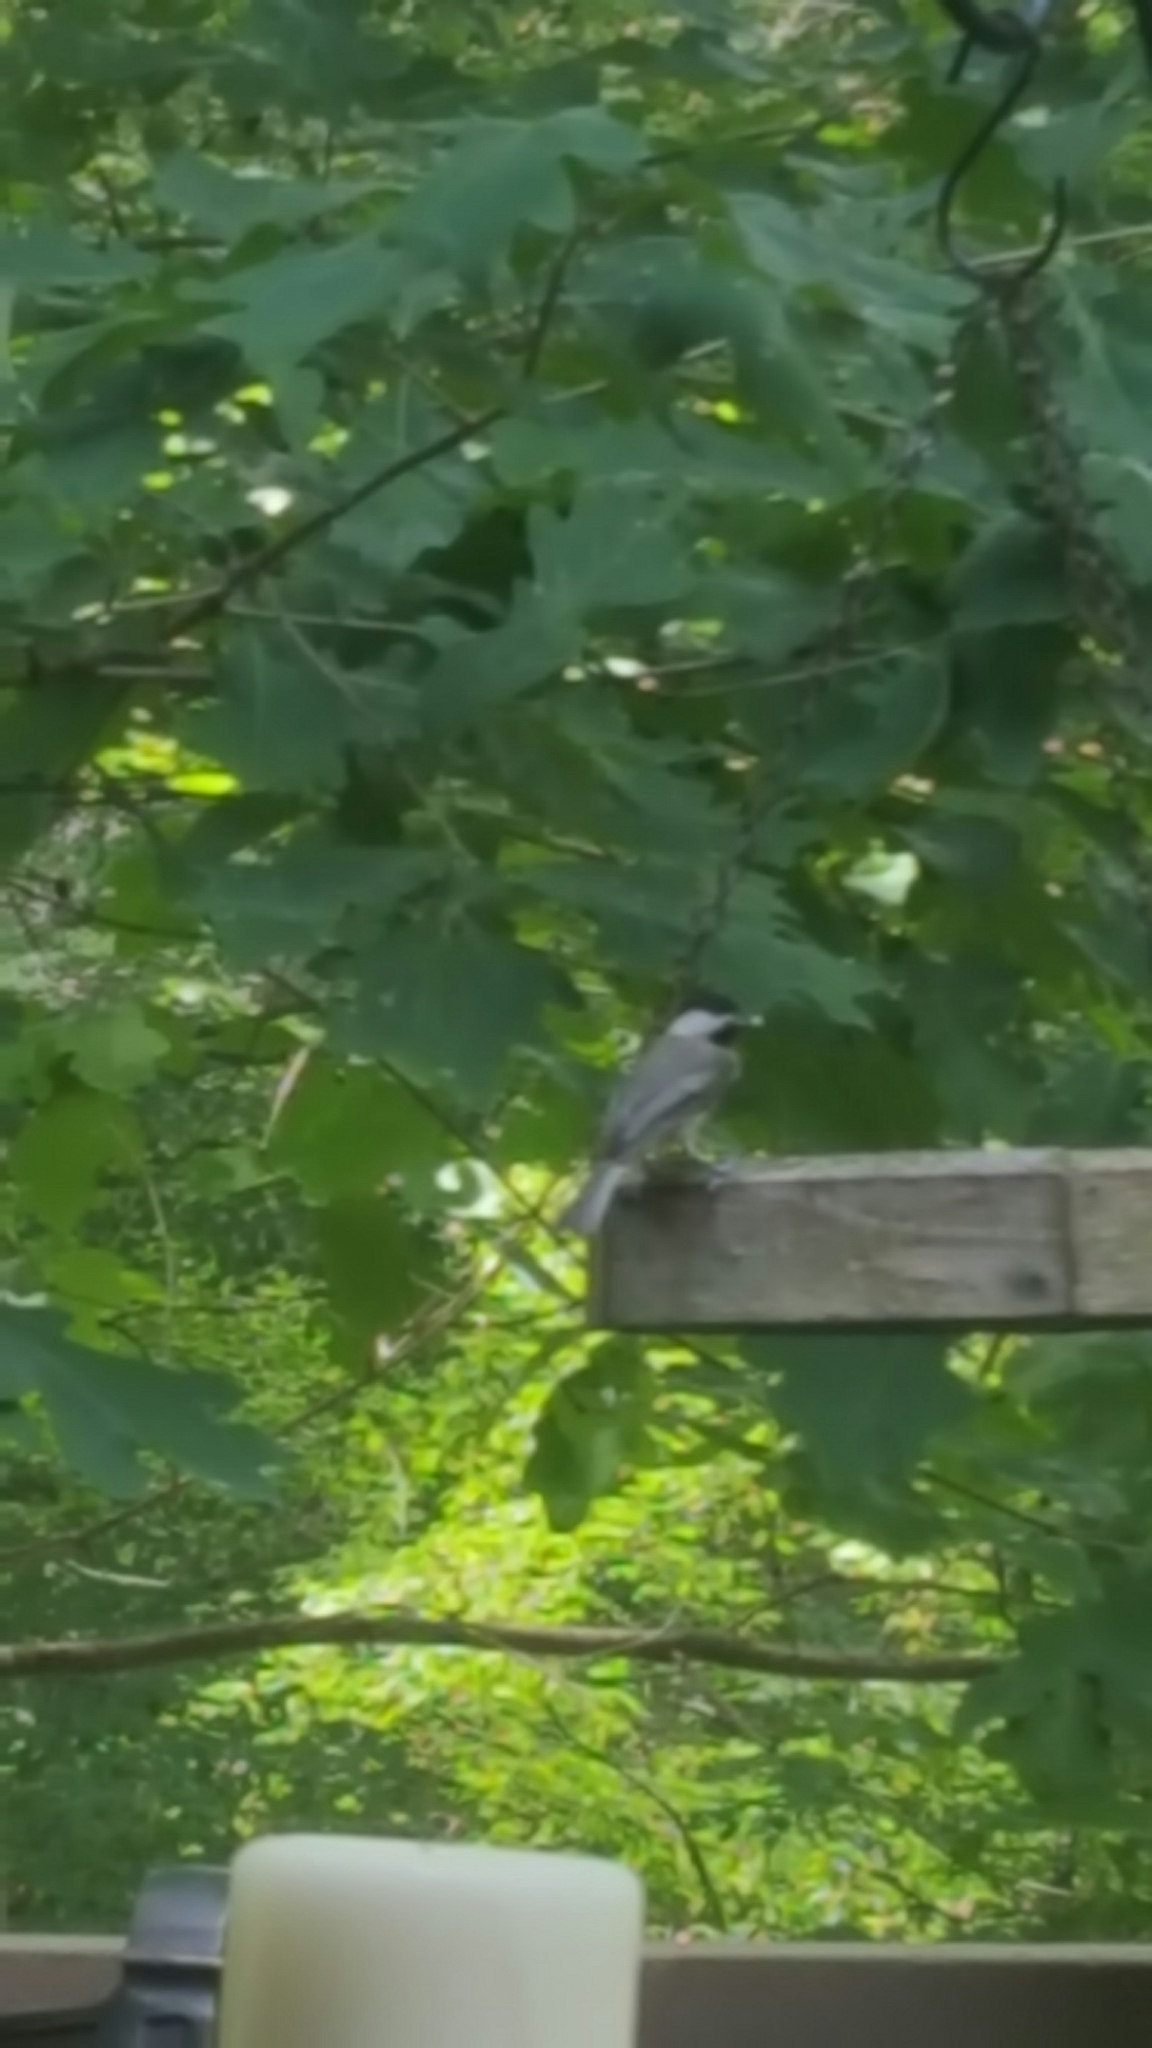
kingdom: Animalia
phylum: Chordata
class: Aves
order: Passeriformes
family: Paridae
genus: Poecile
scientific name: Poecile carolinensis
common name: Carolina chickadee
